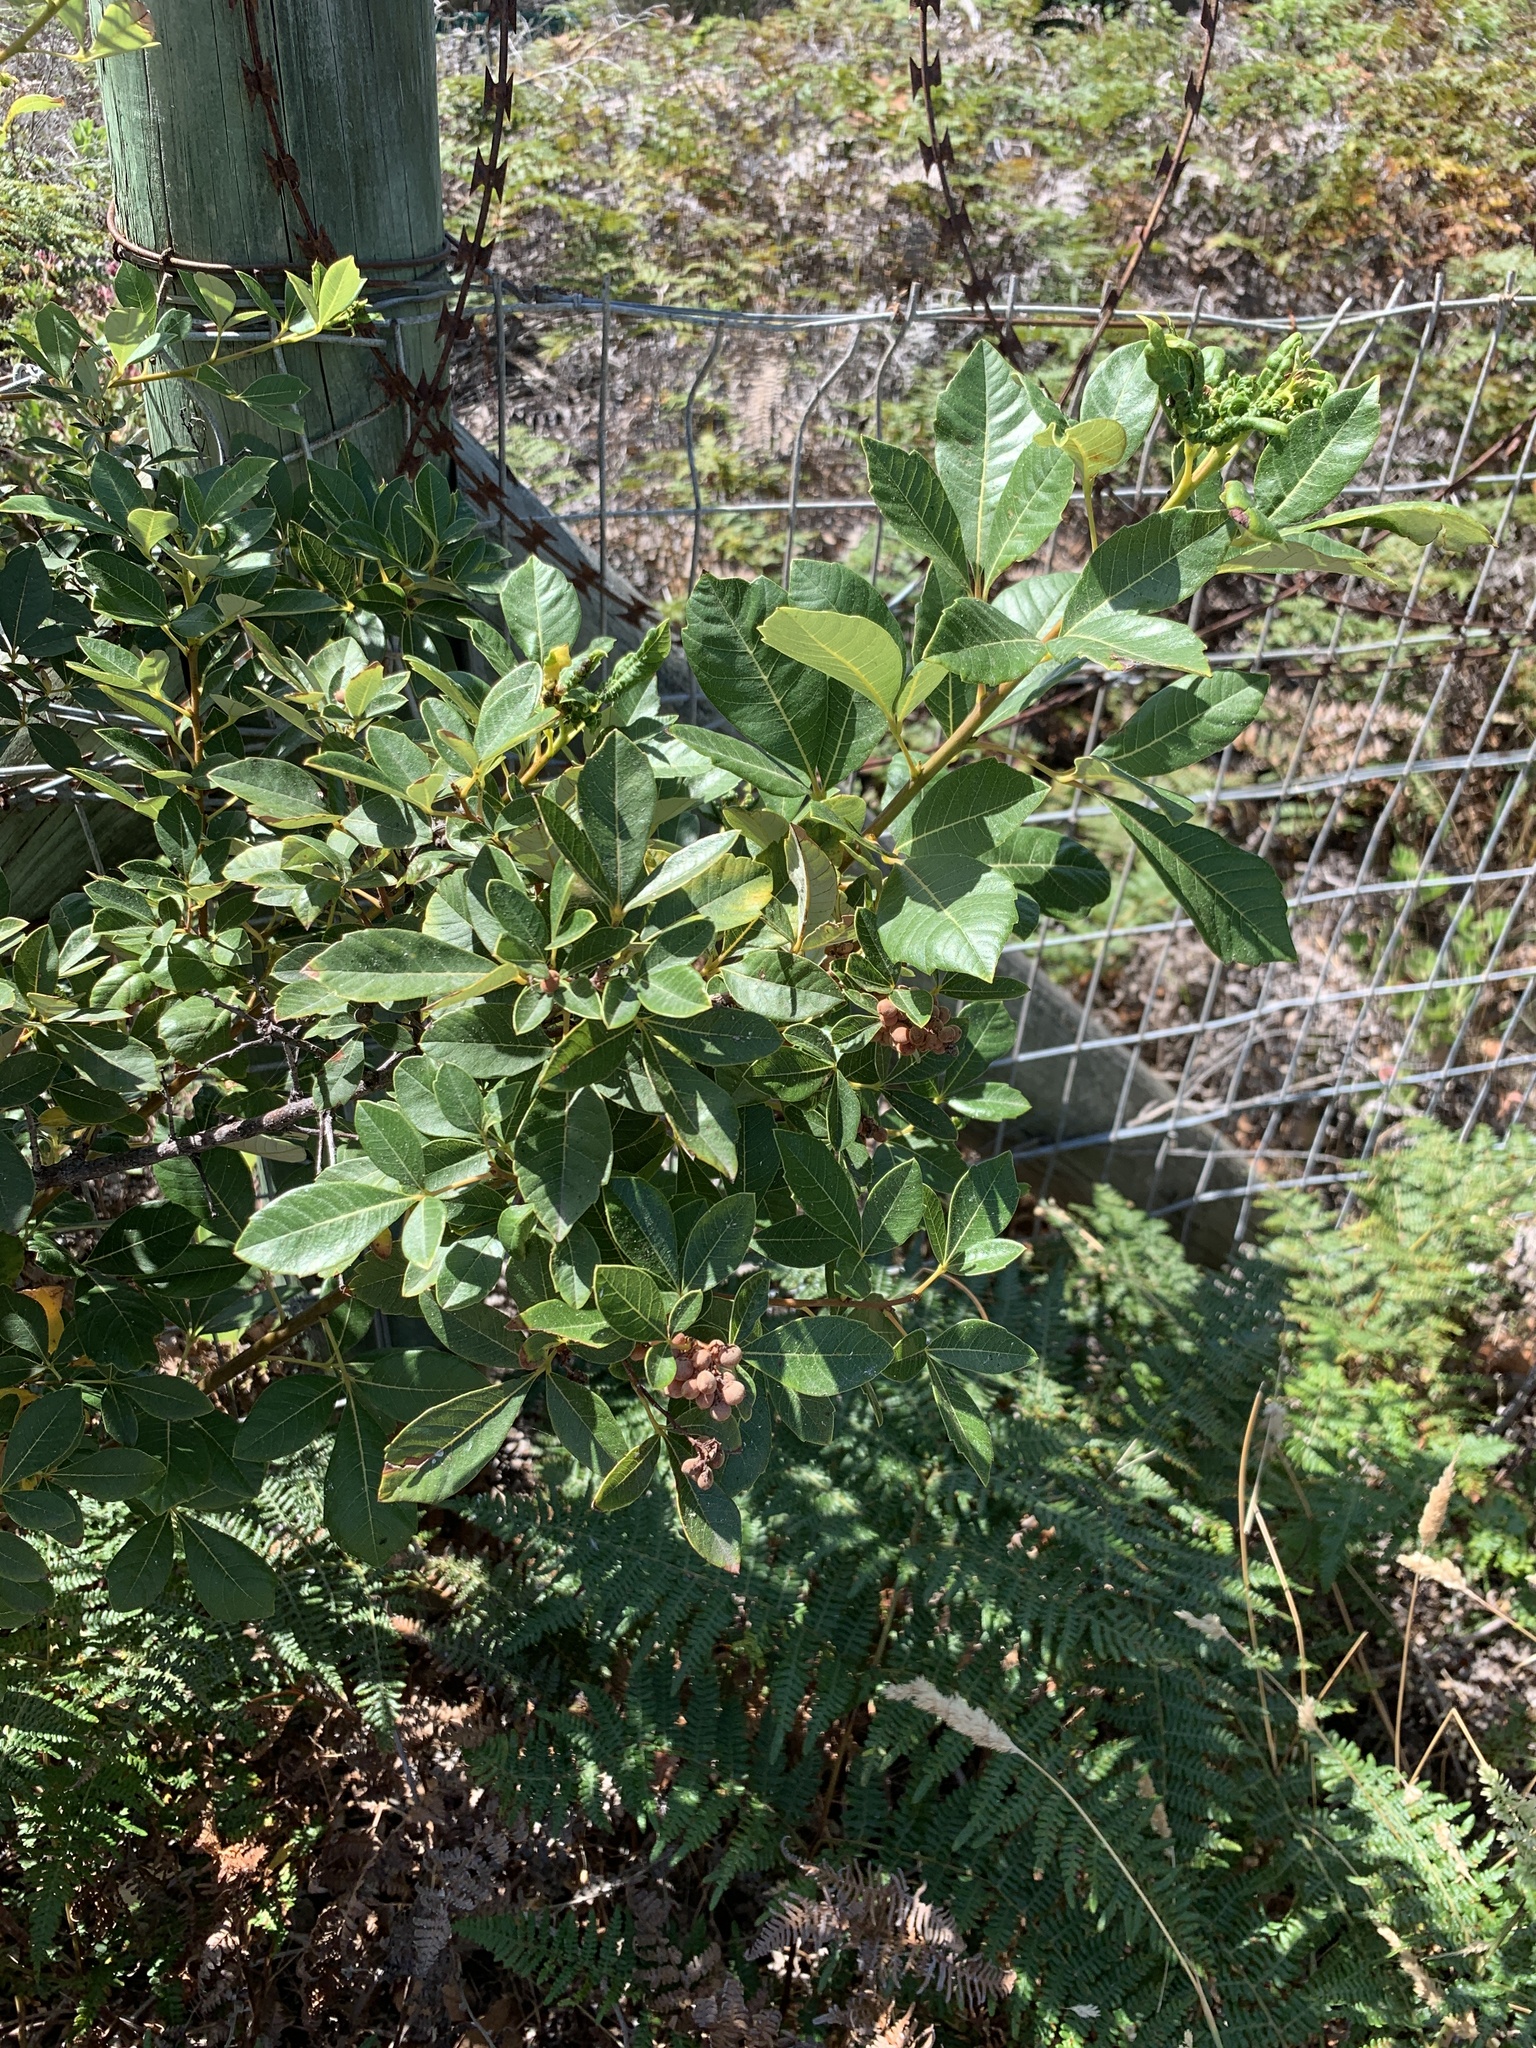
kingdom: Plantae
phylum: Tracheophyta
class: Magnoliopsida
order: Sapindales
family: Anacardiaceae
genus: Searsia
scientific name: Searsia tomentosa
